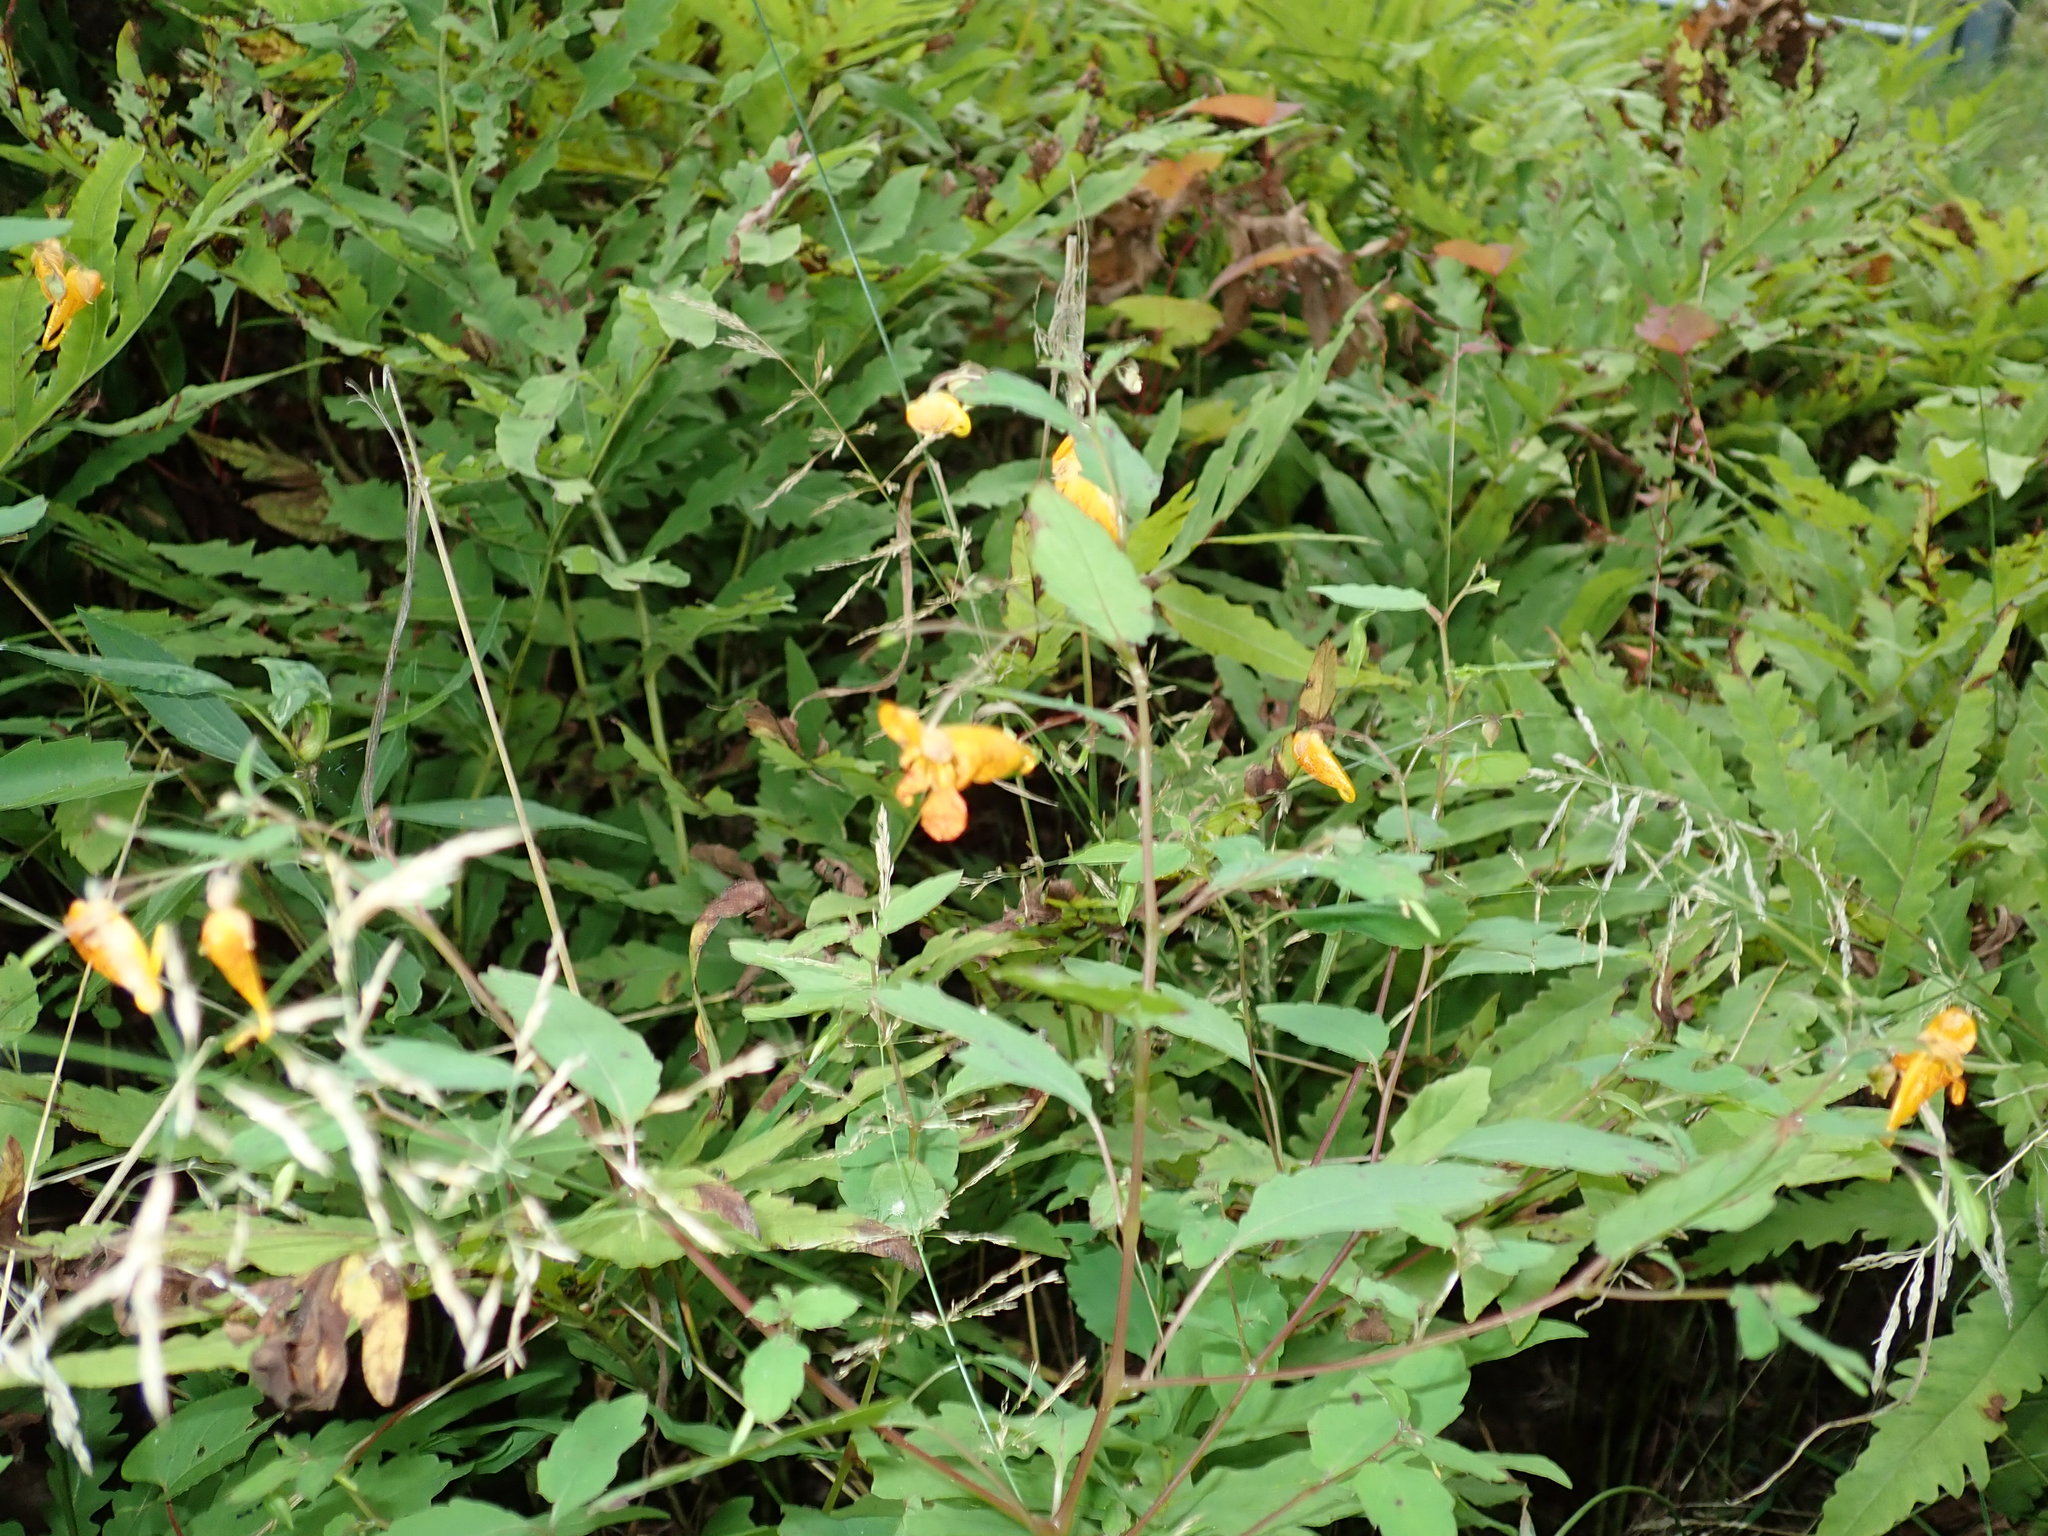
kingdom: Plantae
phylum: Tracheophyta
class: Magnoliopsida
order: Ericales
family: Balsaminaceae
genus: Impatiens
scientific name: Impatiens capensis
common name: Orange balsam
